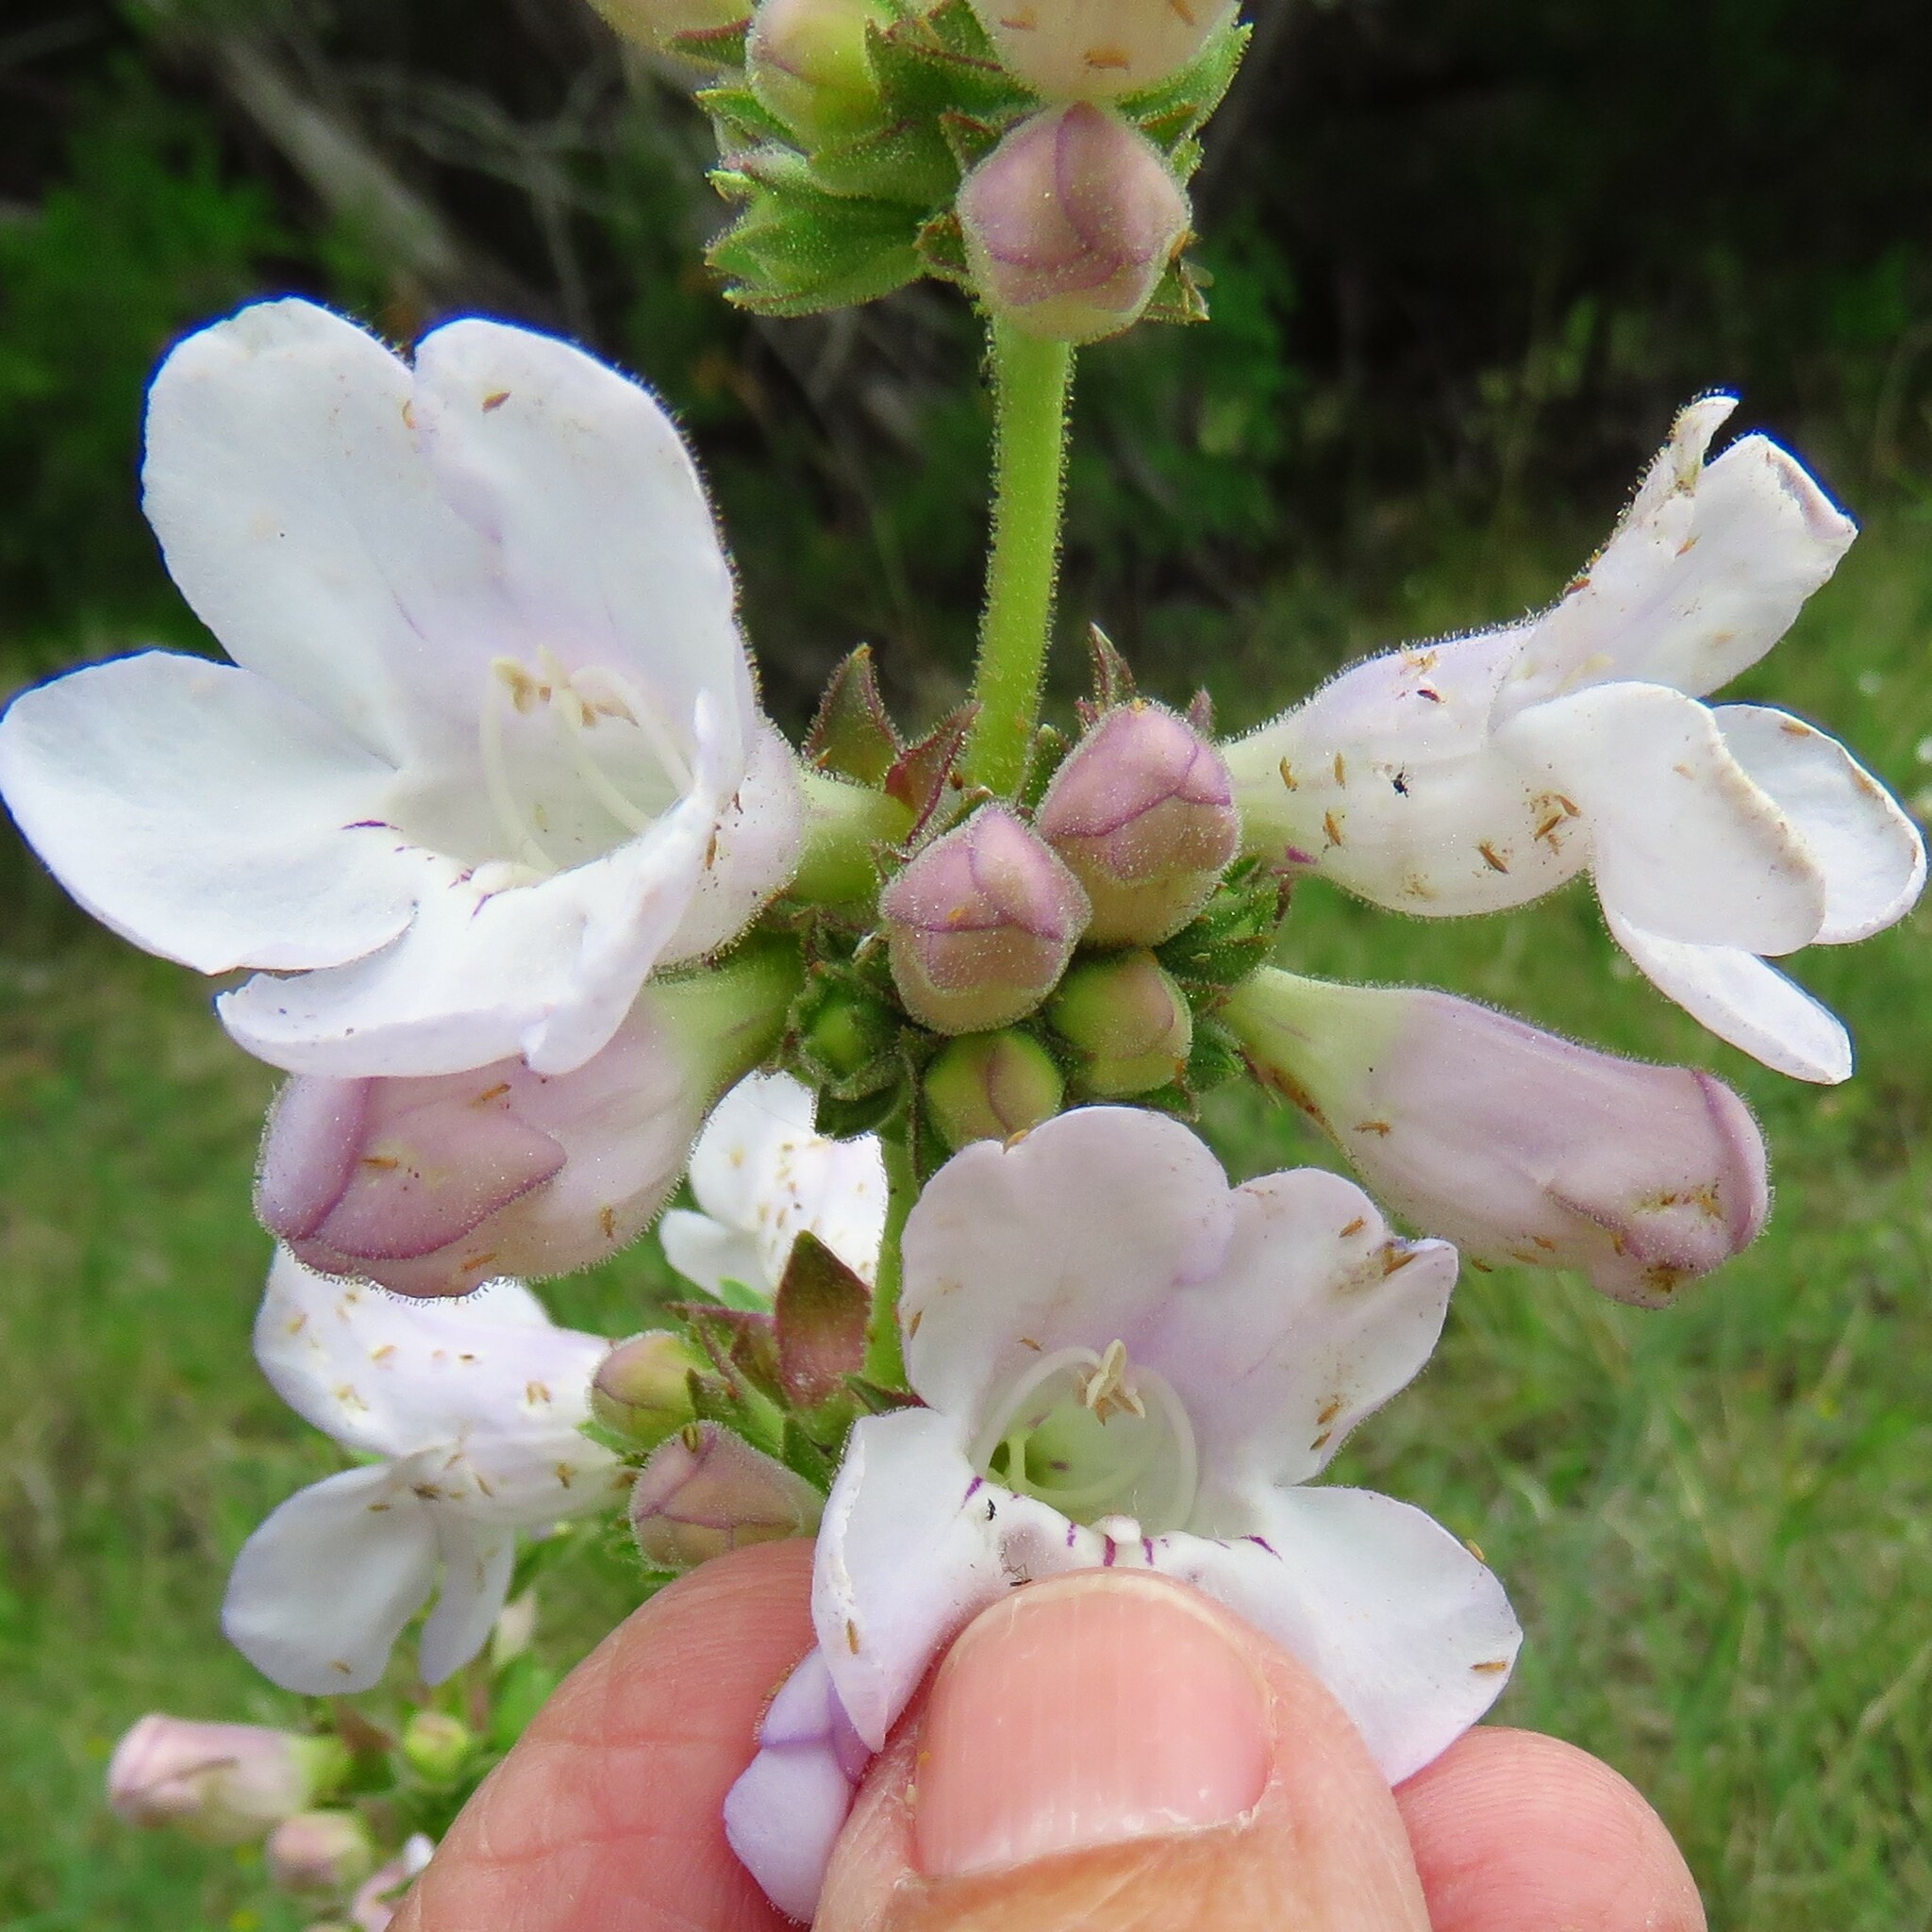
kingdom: Plantae
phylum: Tracheophyta
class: Magnoliopsida
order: Lamiales
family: Plantaginaceae
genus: Penstemon
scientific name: Penstemon cobaea
